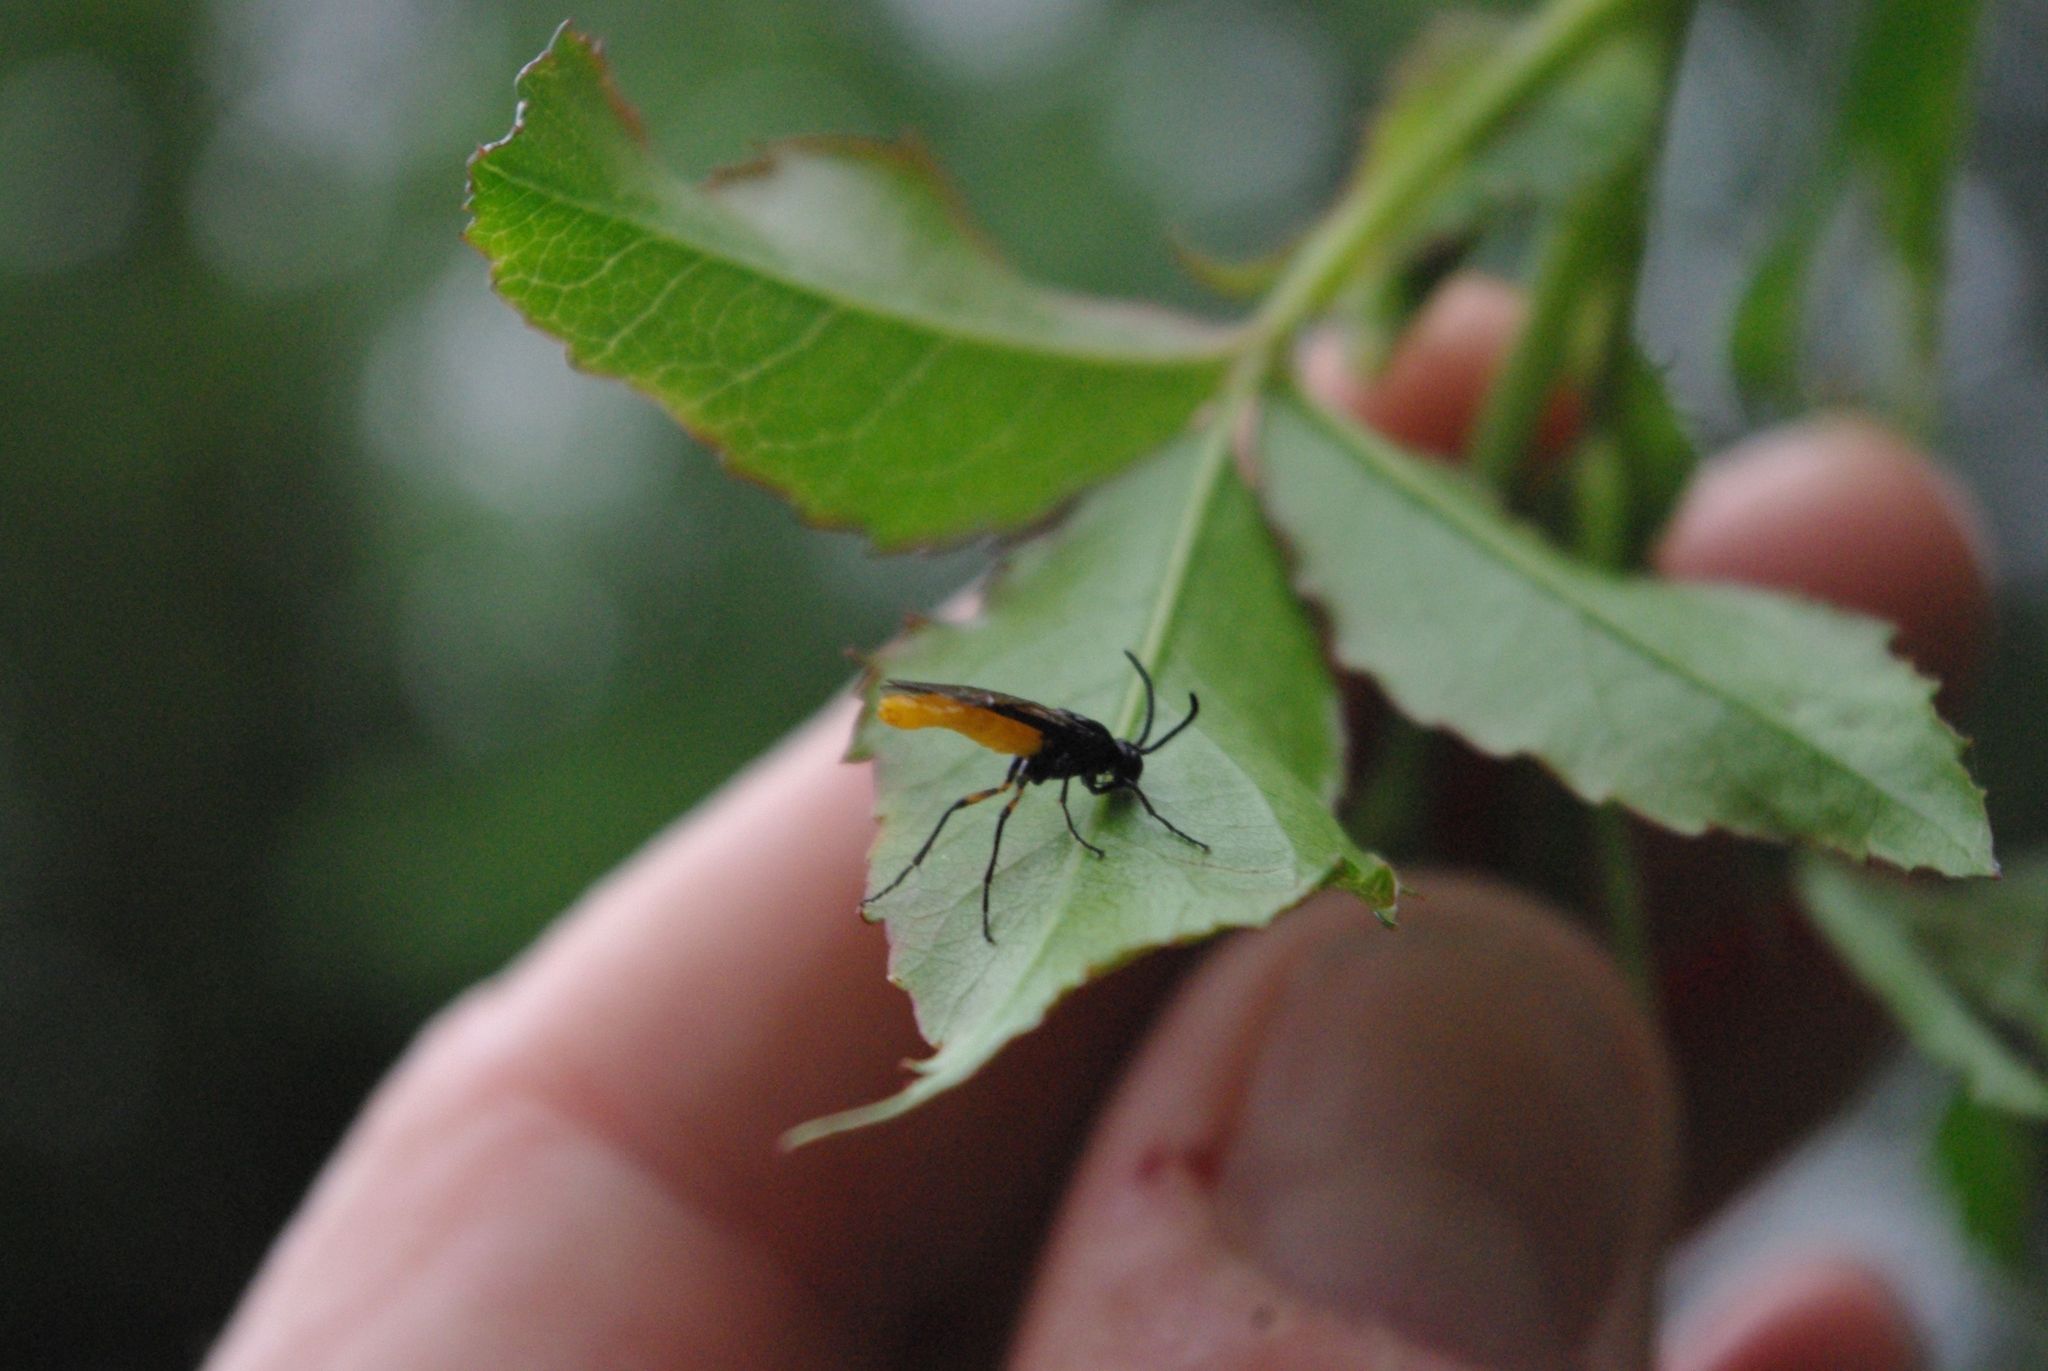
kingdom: Animalia
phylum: Arthropoda
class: Insecta
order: Hymenoptera
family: Argidae
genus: Arge
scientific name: Arge pagana
